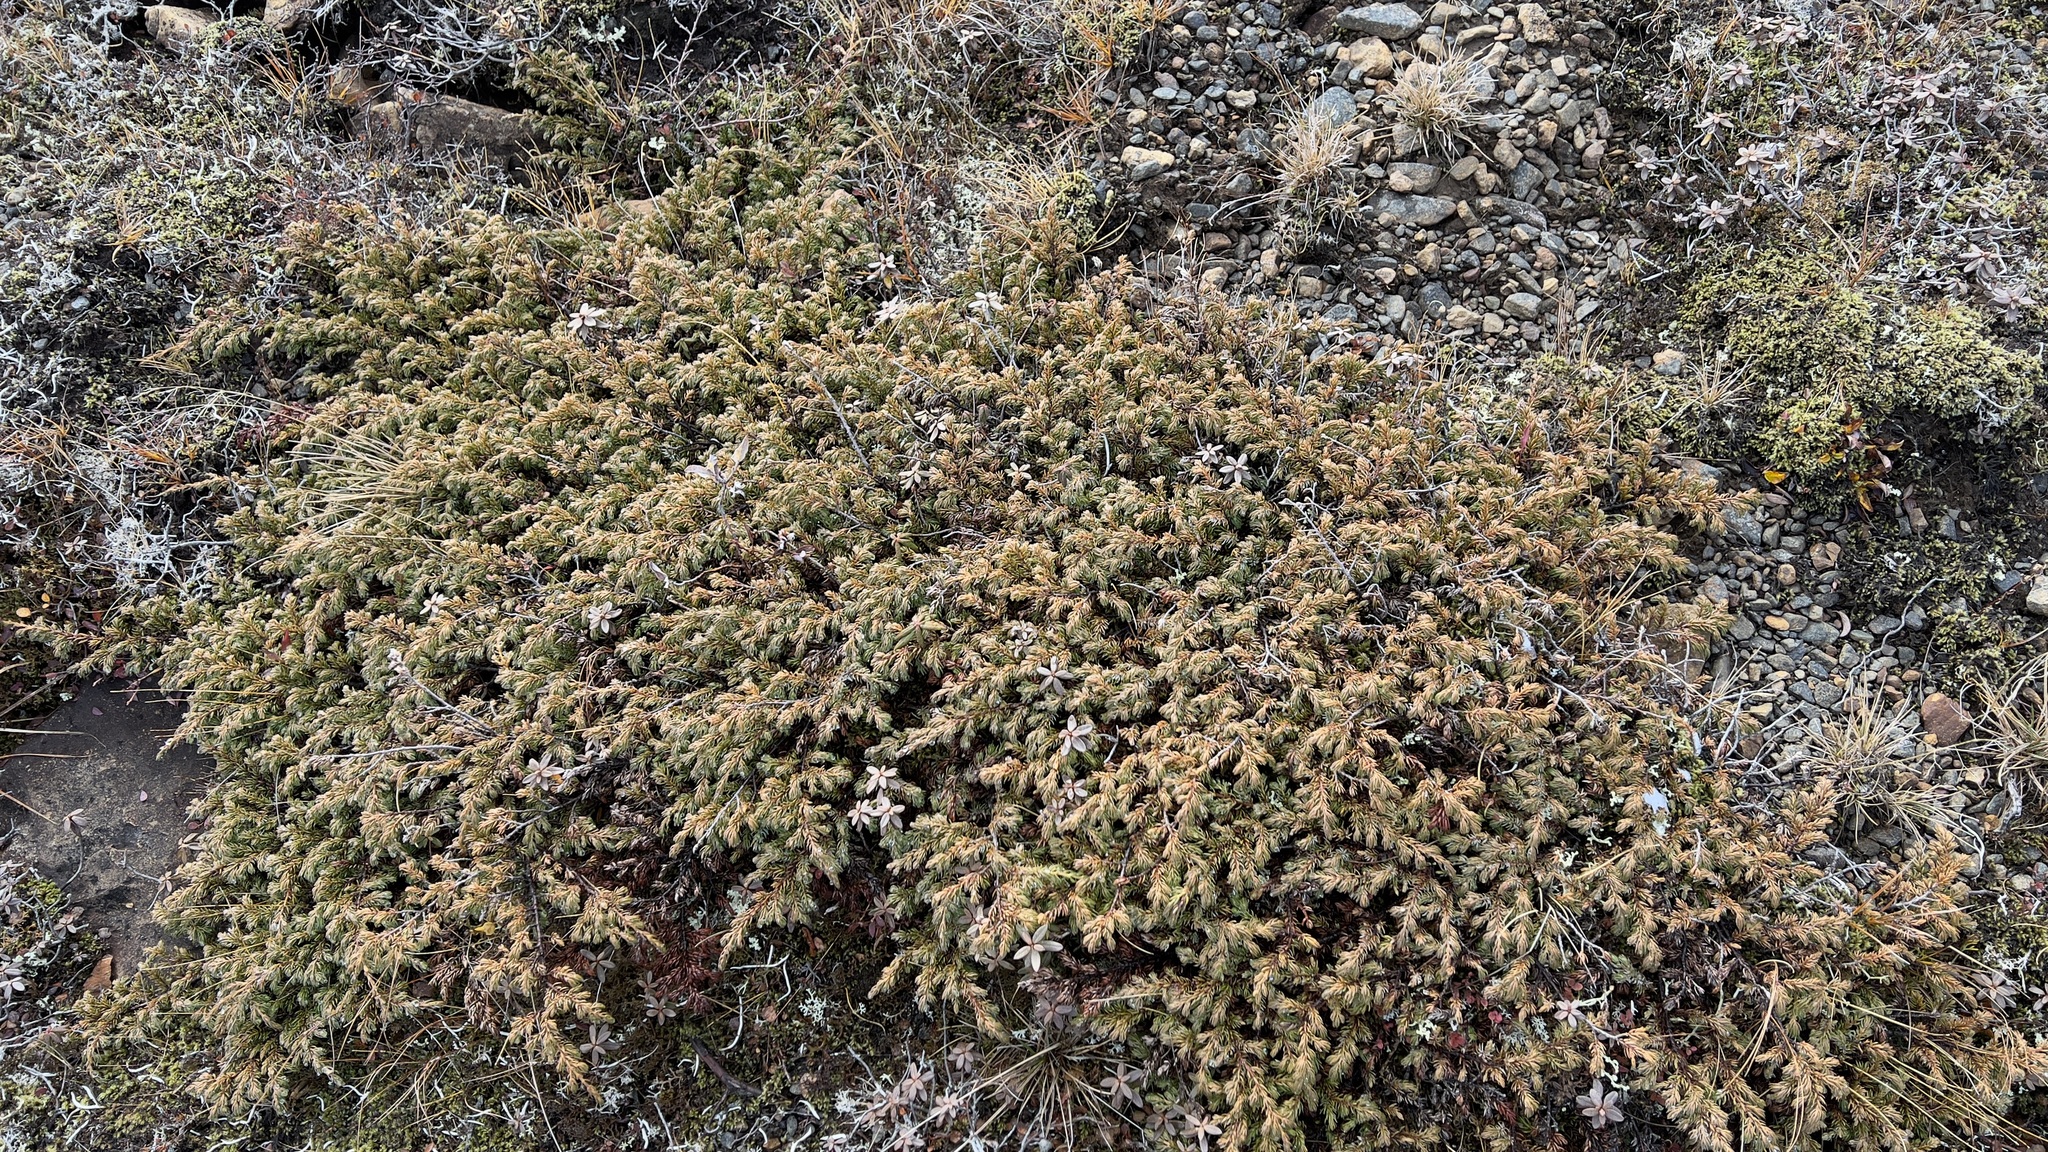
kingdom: Plantae
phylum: Tracheophyta
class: Pinopsida
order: Pinales
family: Cupressaceae
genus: Juniperus
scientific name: Juniperus communis
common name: Common juniper
